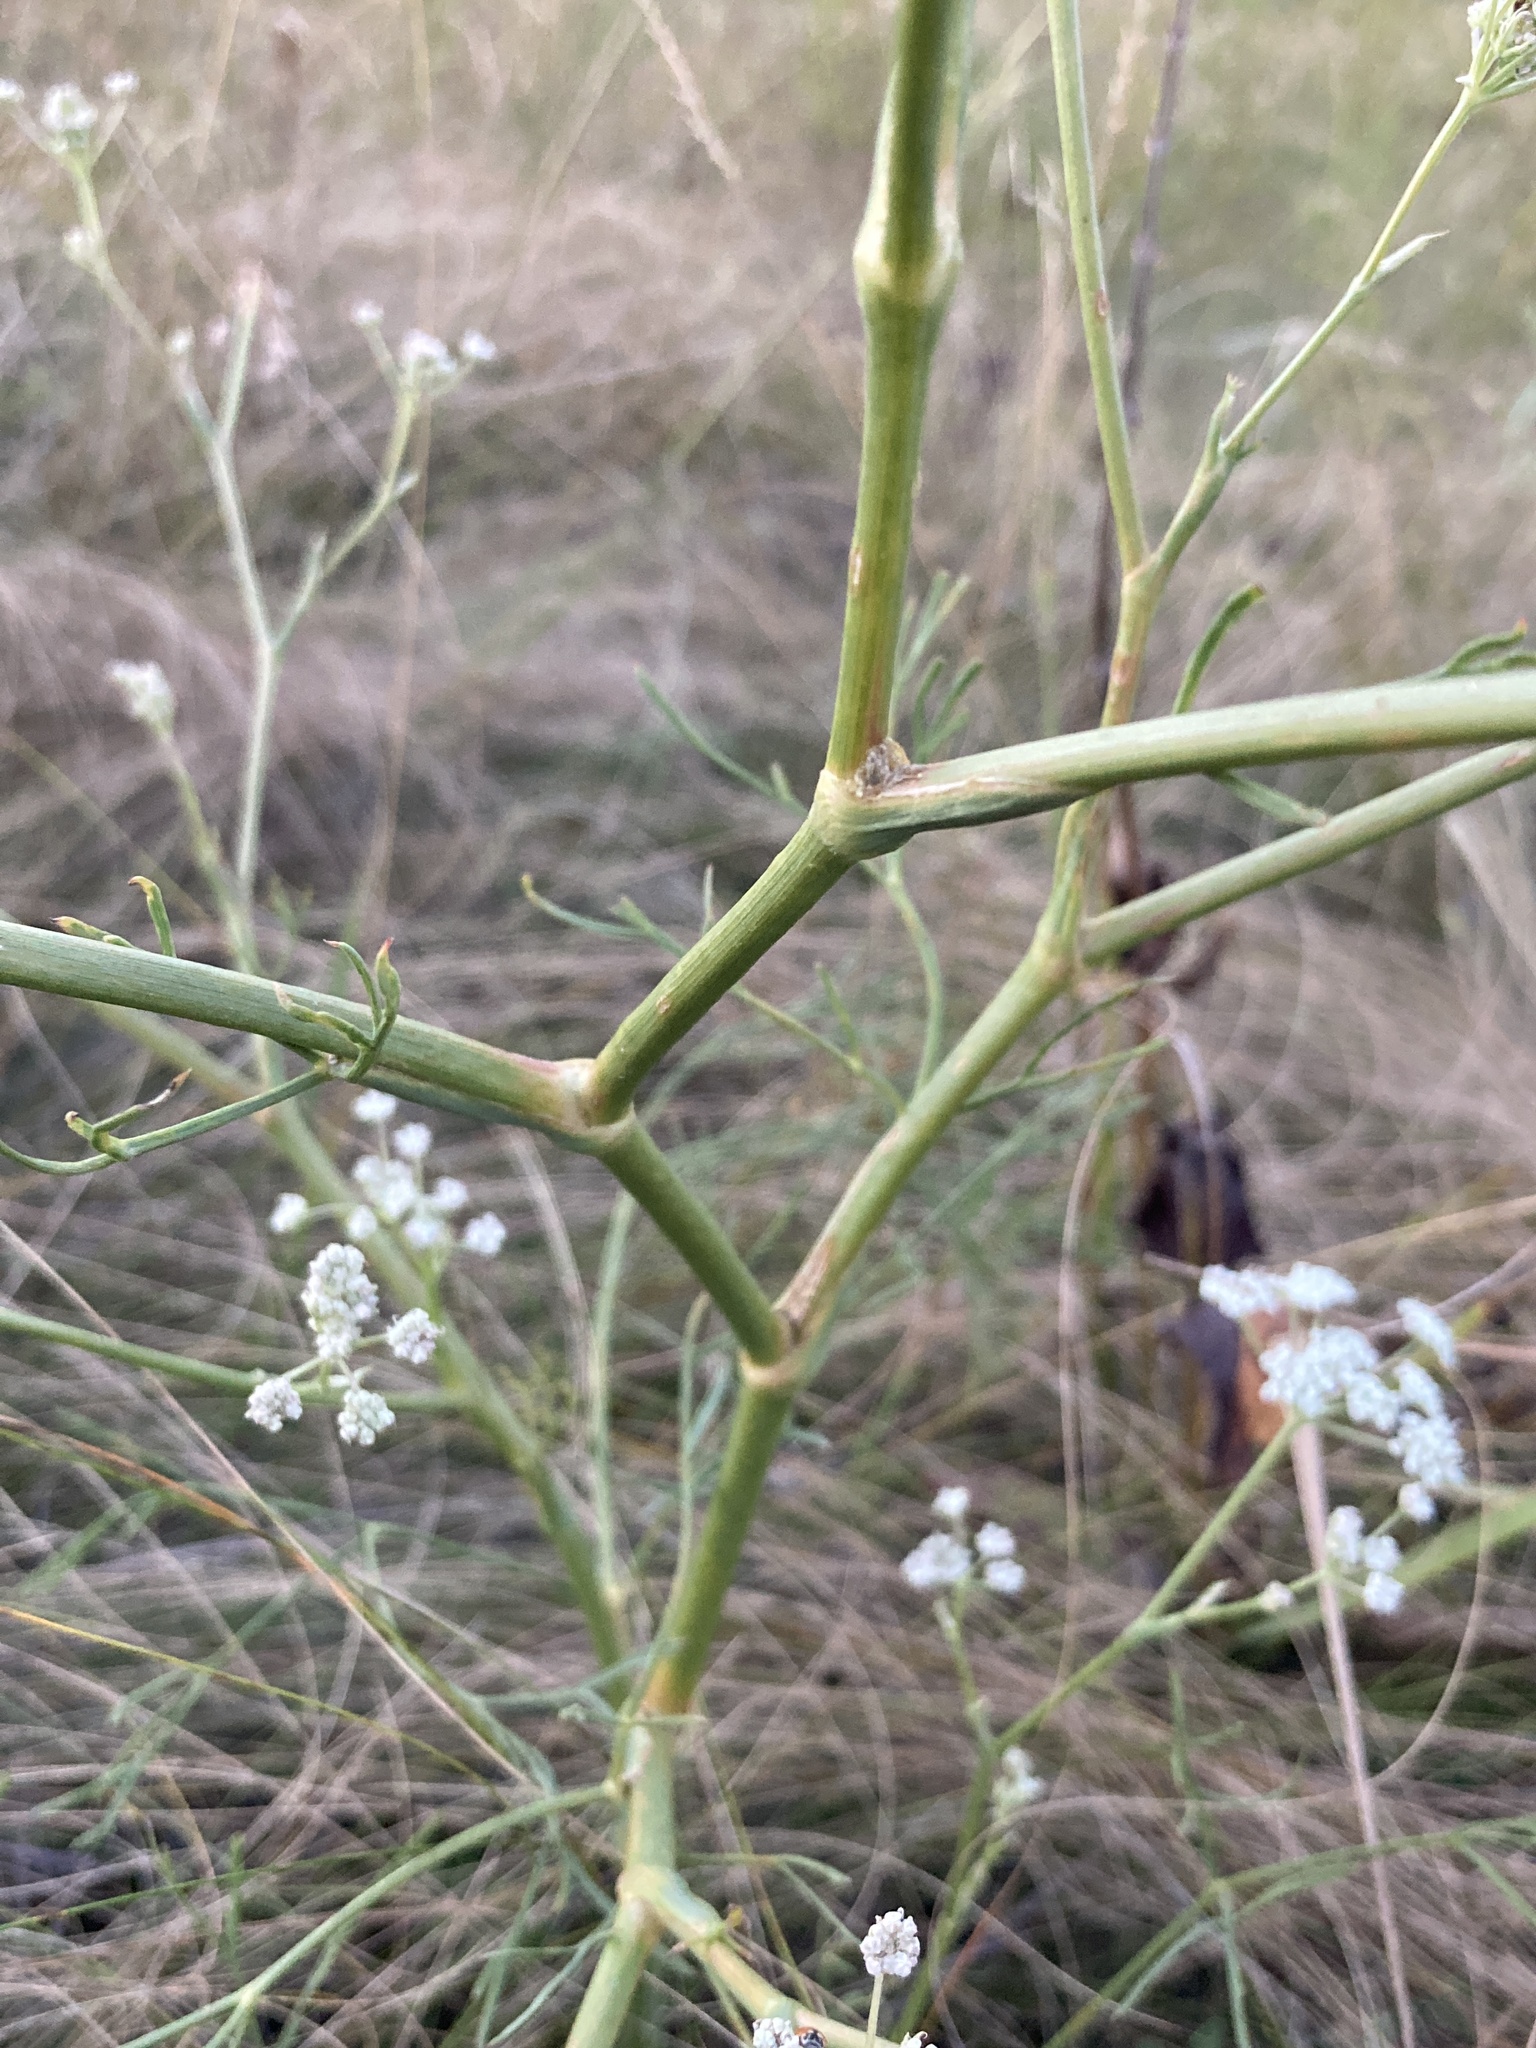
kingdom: Plantae
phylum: Tracheophyta
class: Magnoliopsida
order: Apiales
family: Apiaceae
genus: Seseli
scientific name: Seseli arenarium
